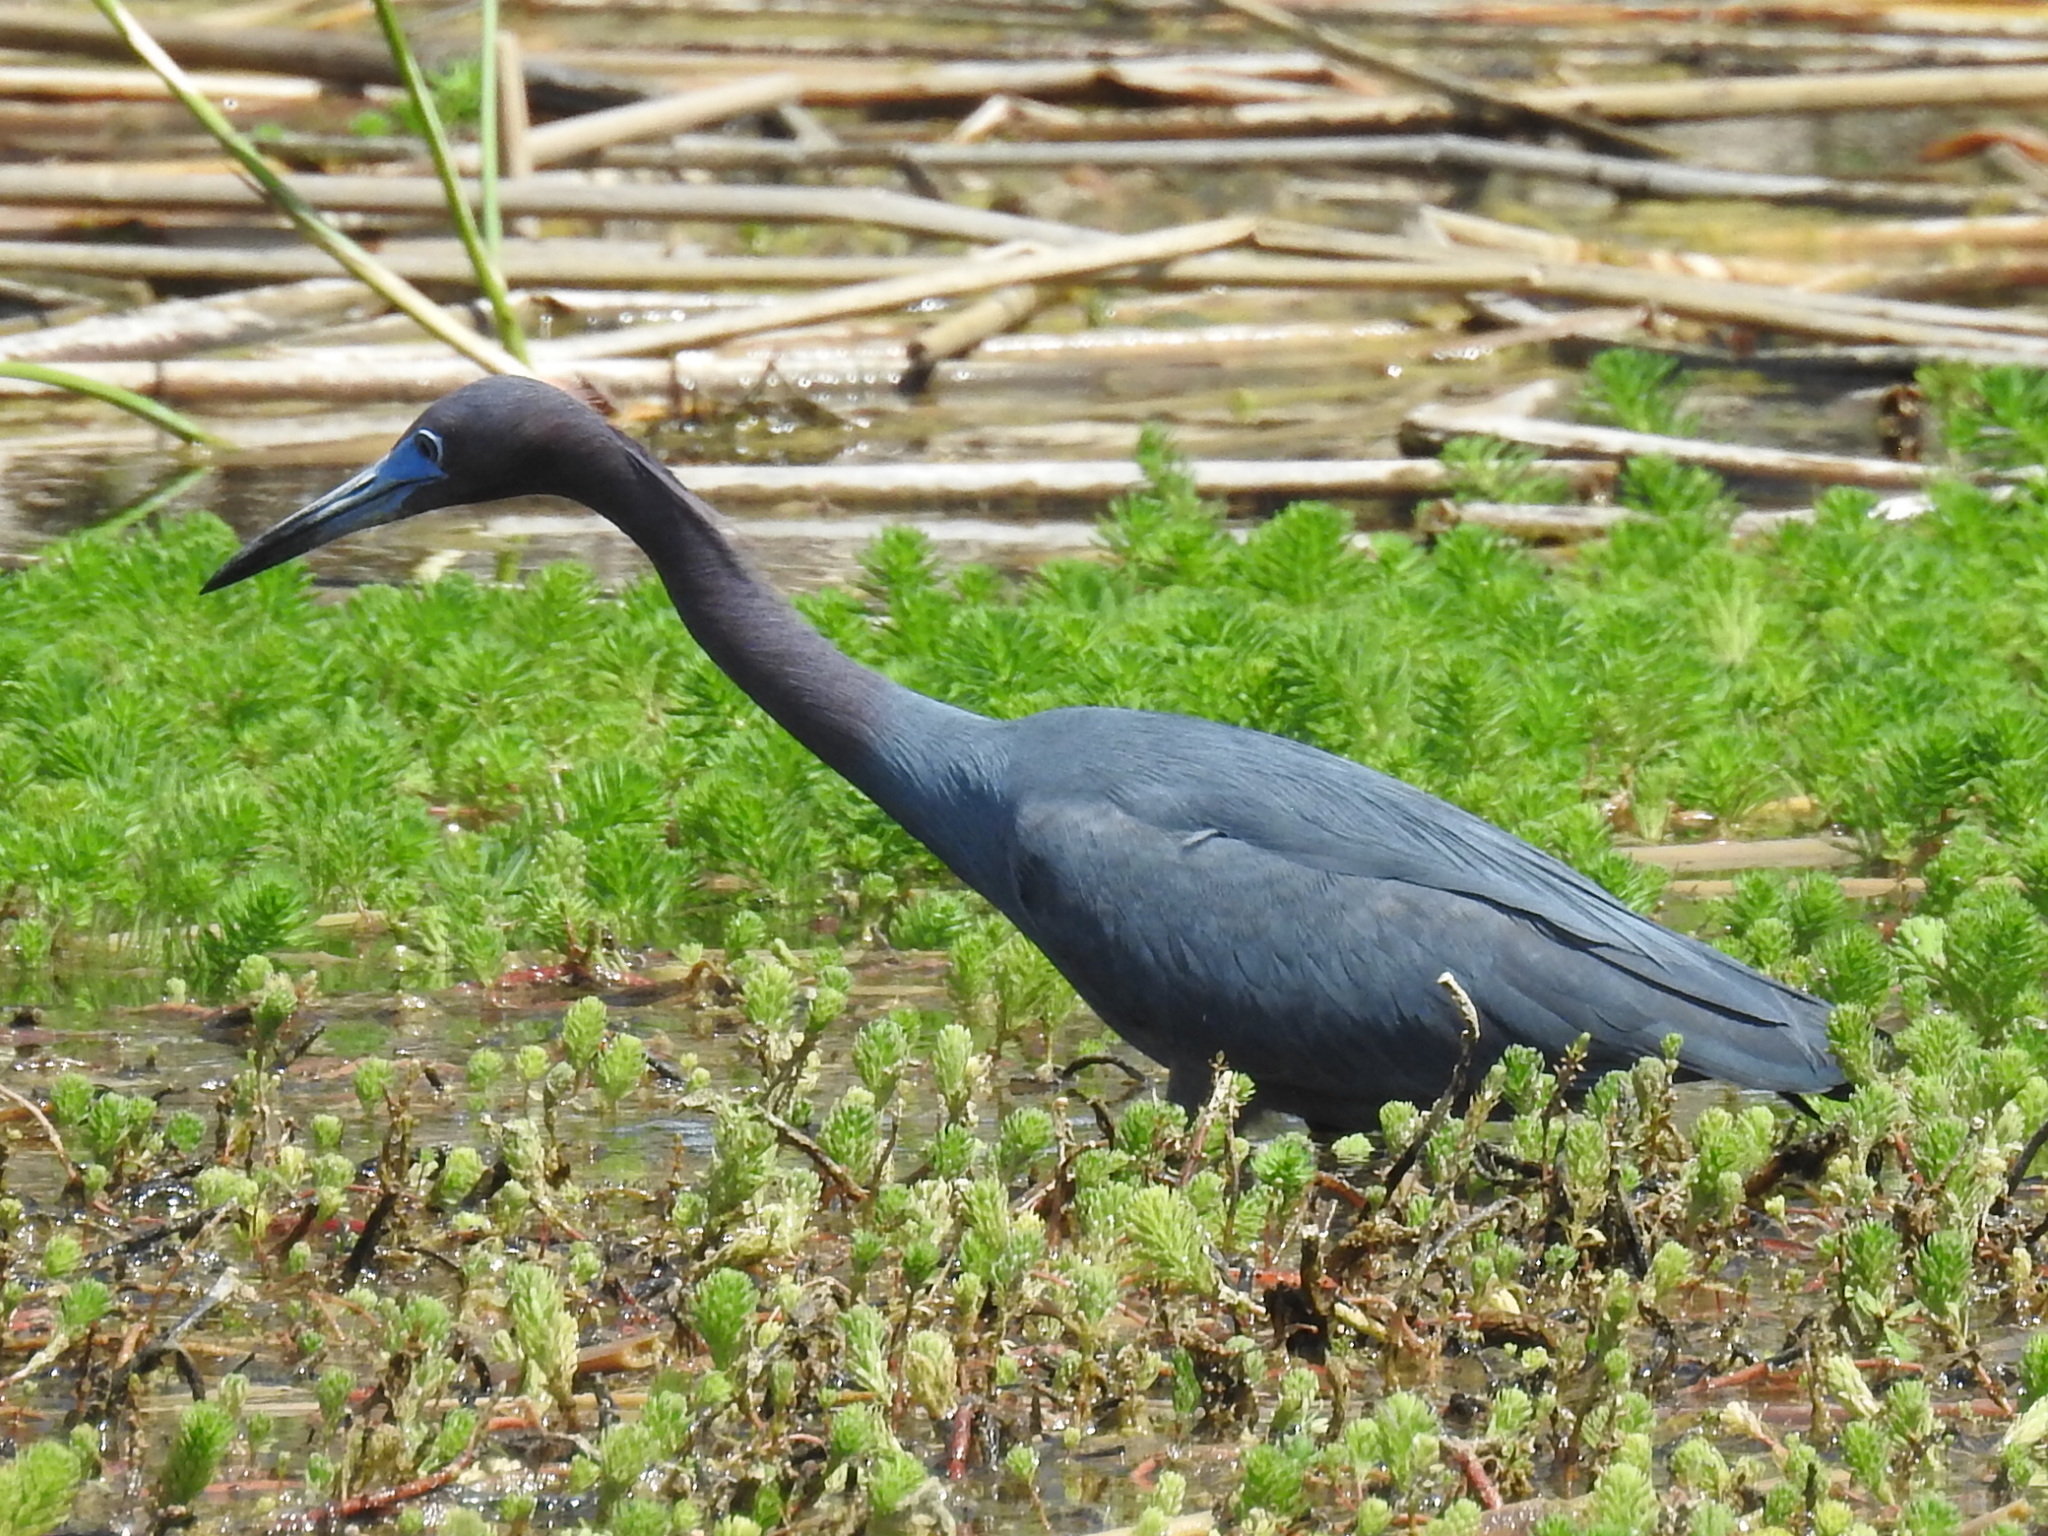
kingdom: Animalia
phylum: Chordata
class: Aves
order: Pelecaniformes
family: Ardeidae
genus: Egretta
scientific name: Egretta caerulea
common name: Little blue heron
